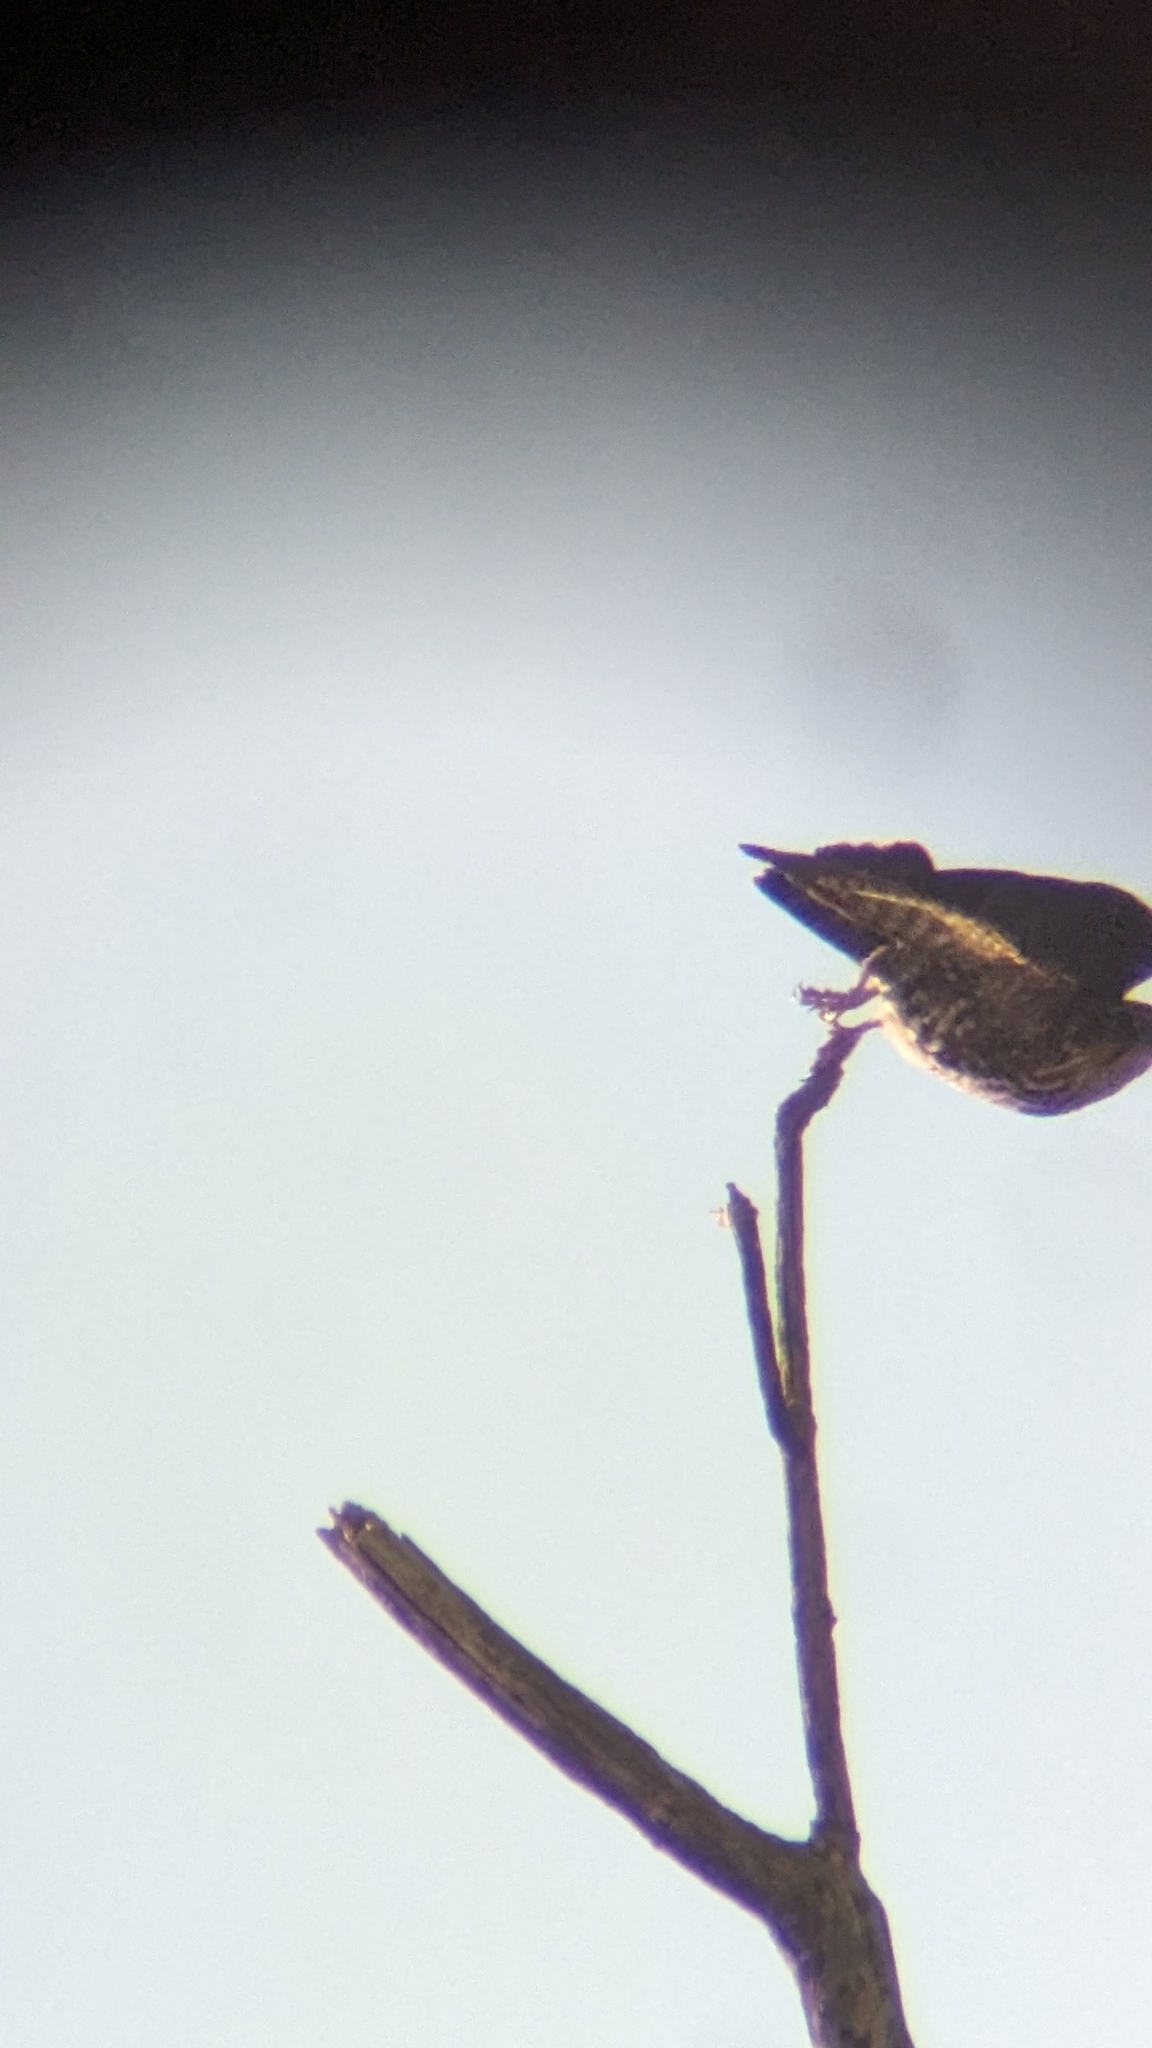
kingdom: Animalia
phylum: Chordata
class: Aves
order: Falconiformes
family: Falconidae
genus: Falco
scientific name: Falco columbarius
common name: Merlin
